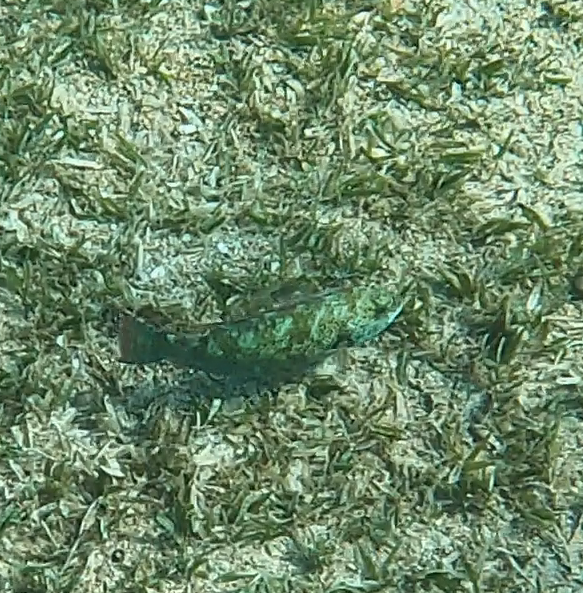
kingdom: Animalia
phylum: Chordata
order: Perciformes
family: Scaridae
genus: Calotomus
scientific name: Calotomus viridescens
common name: Dotted parrotfish
